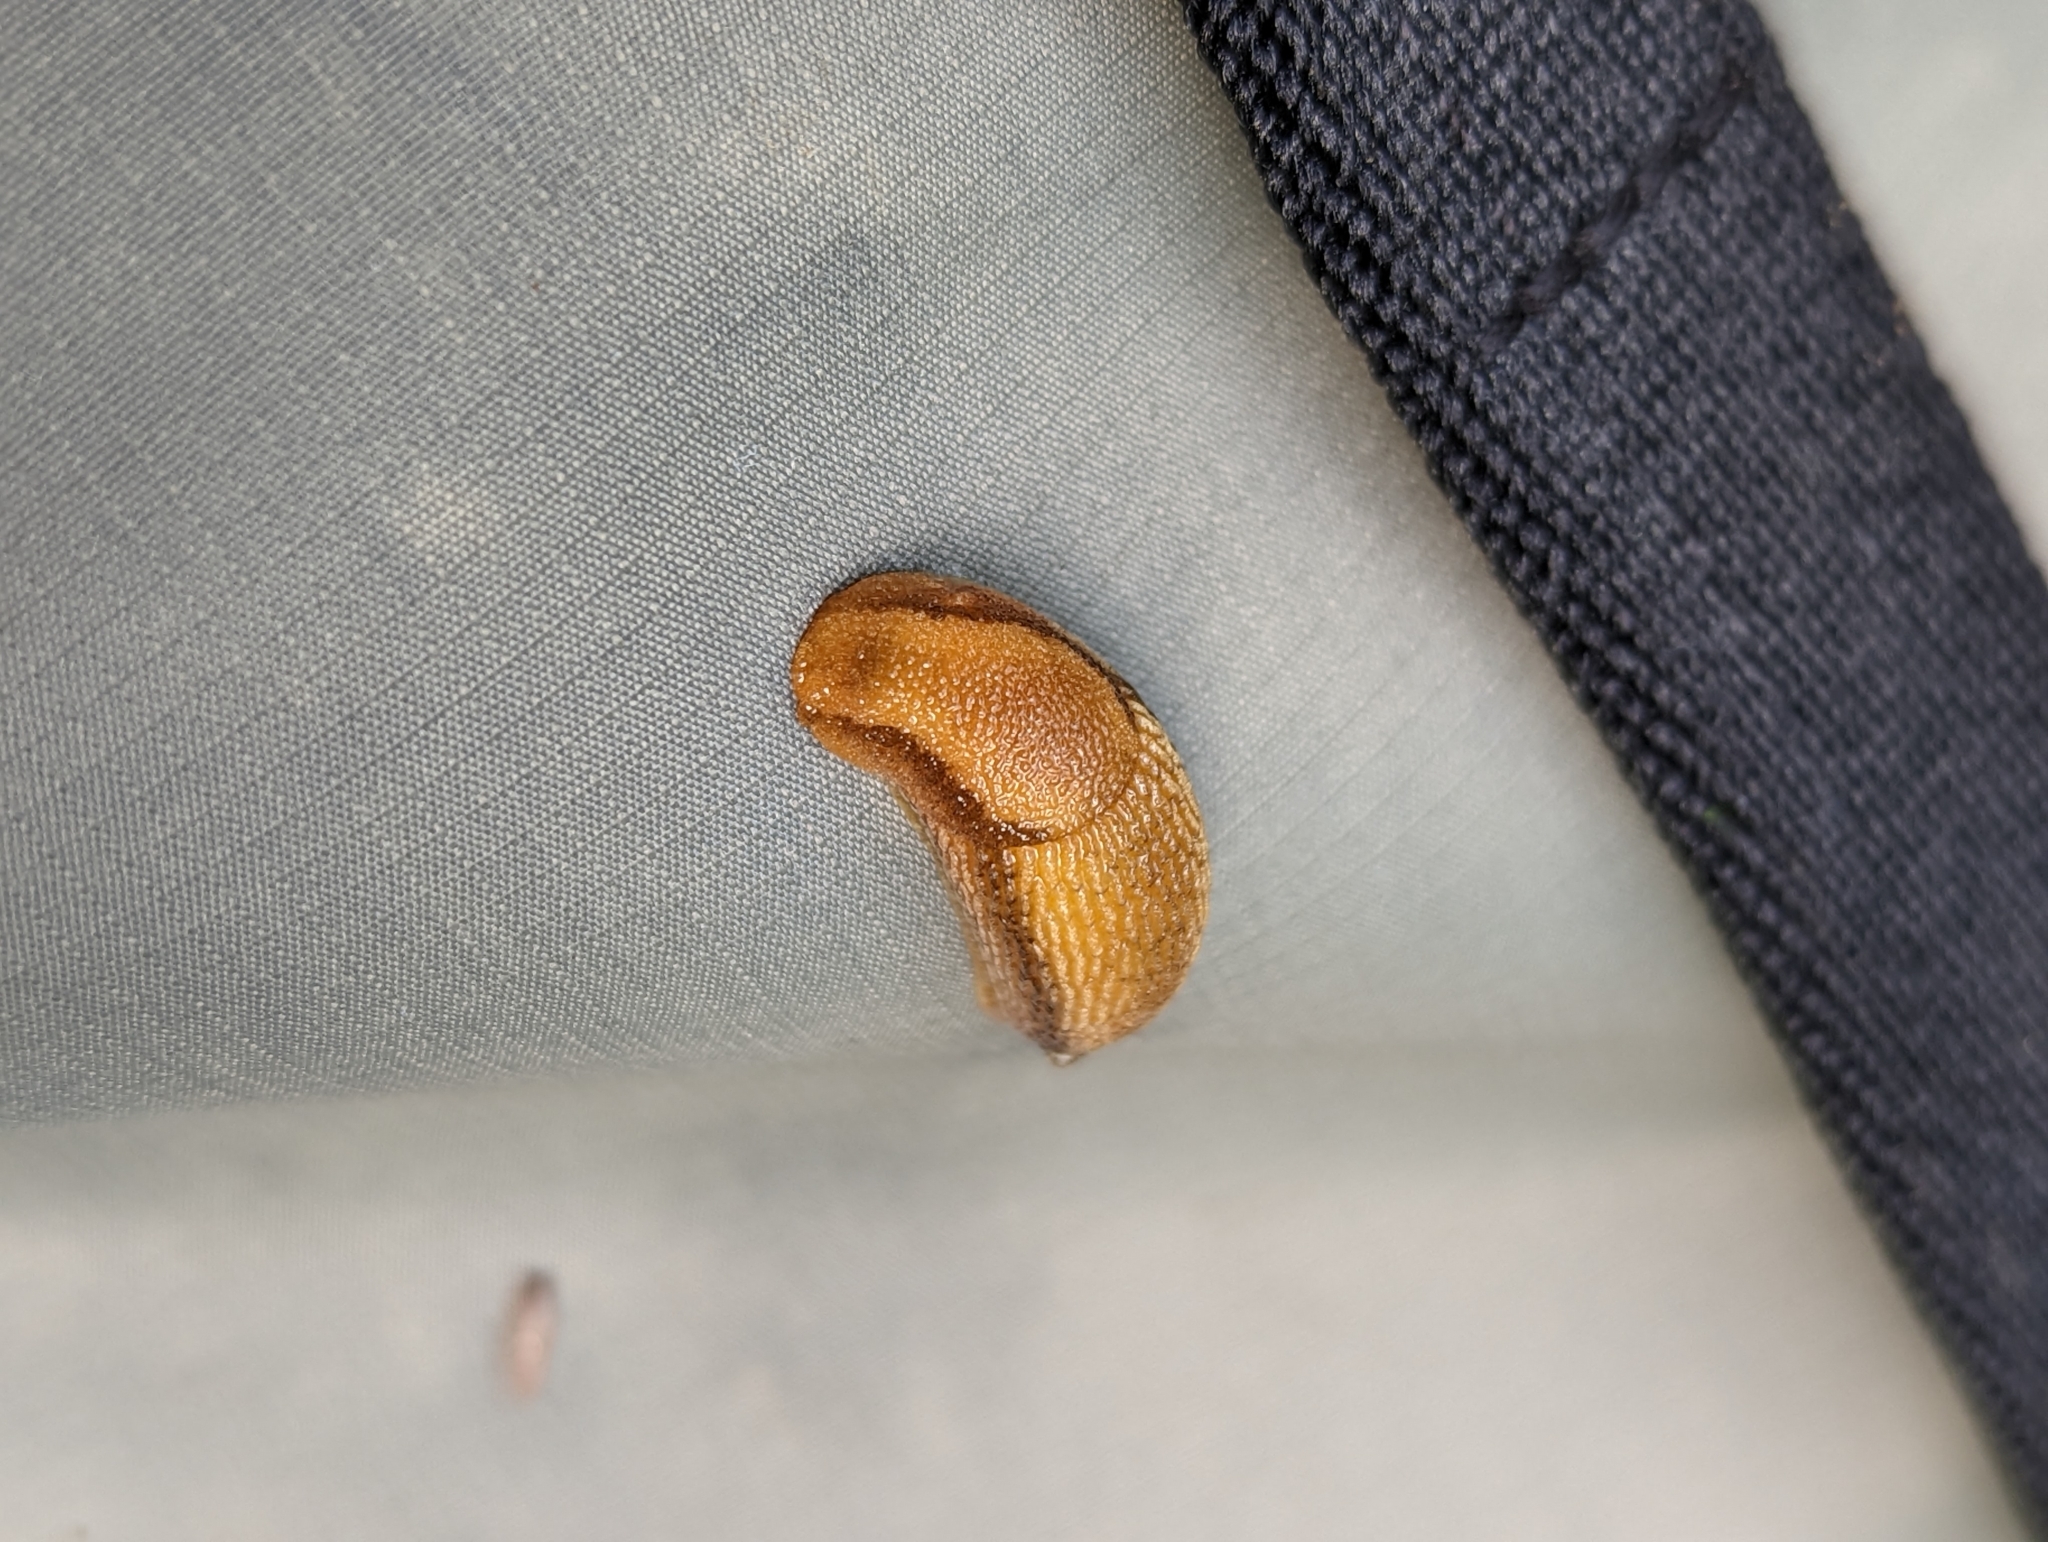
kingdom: Animalia
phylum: Mollusca
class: Gastropoda
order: Stylommatophora
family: Arionidae
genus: Arion
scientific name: Arion subfuscus
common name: Dusky arion
